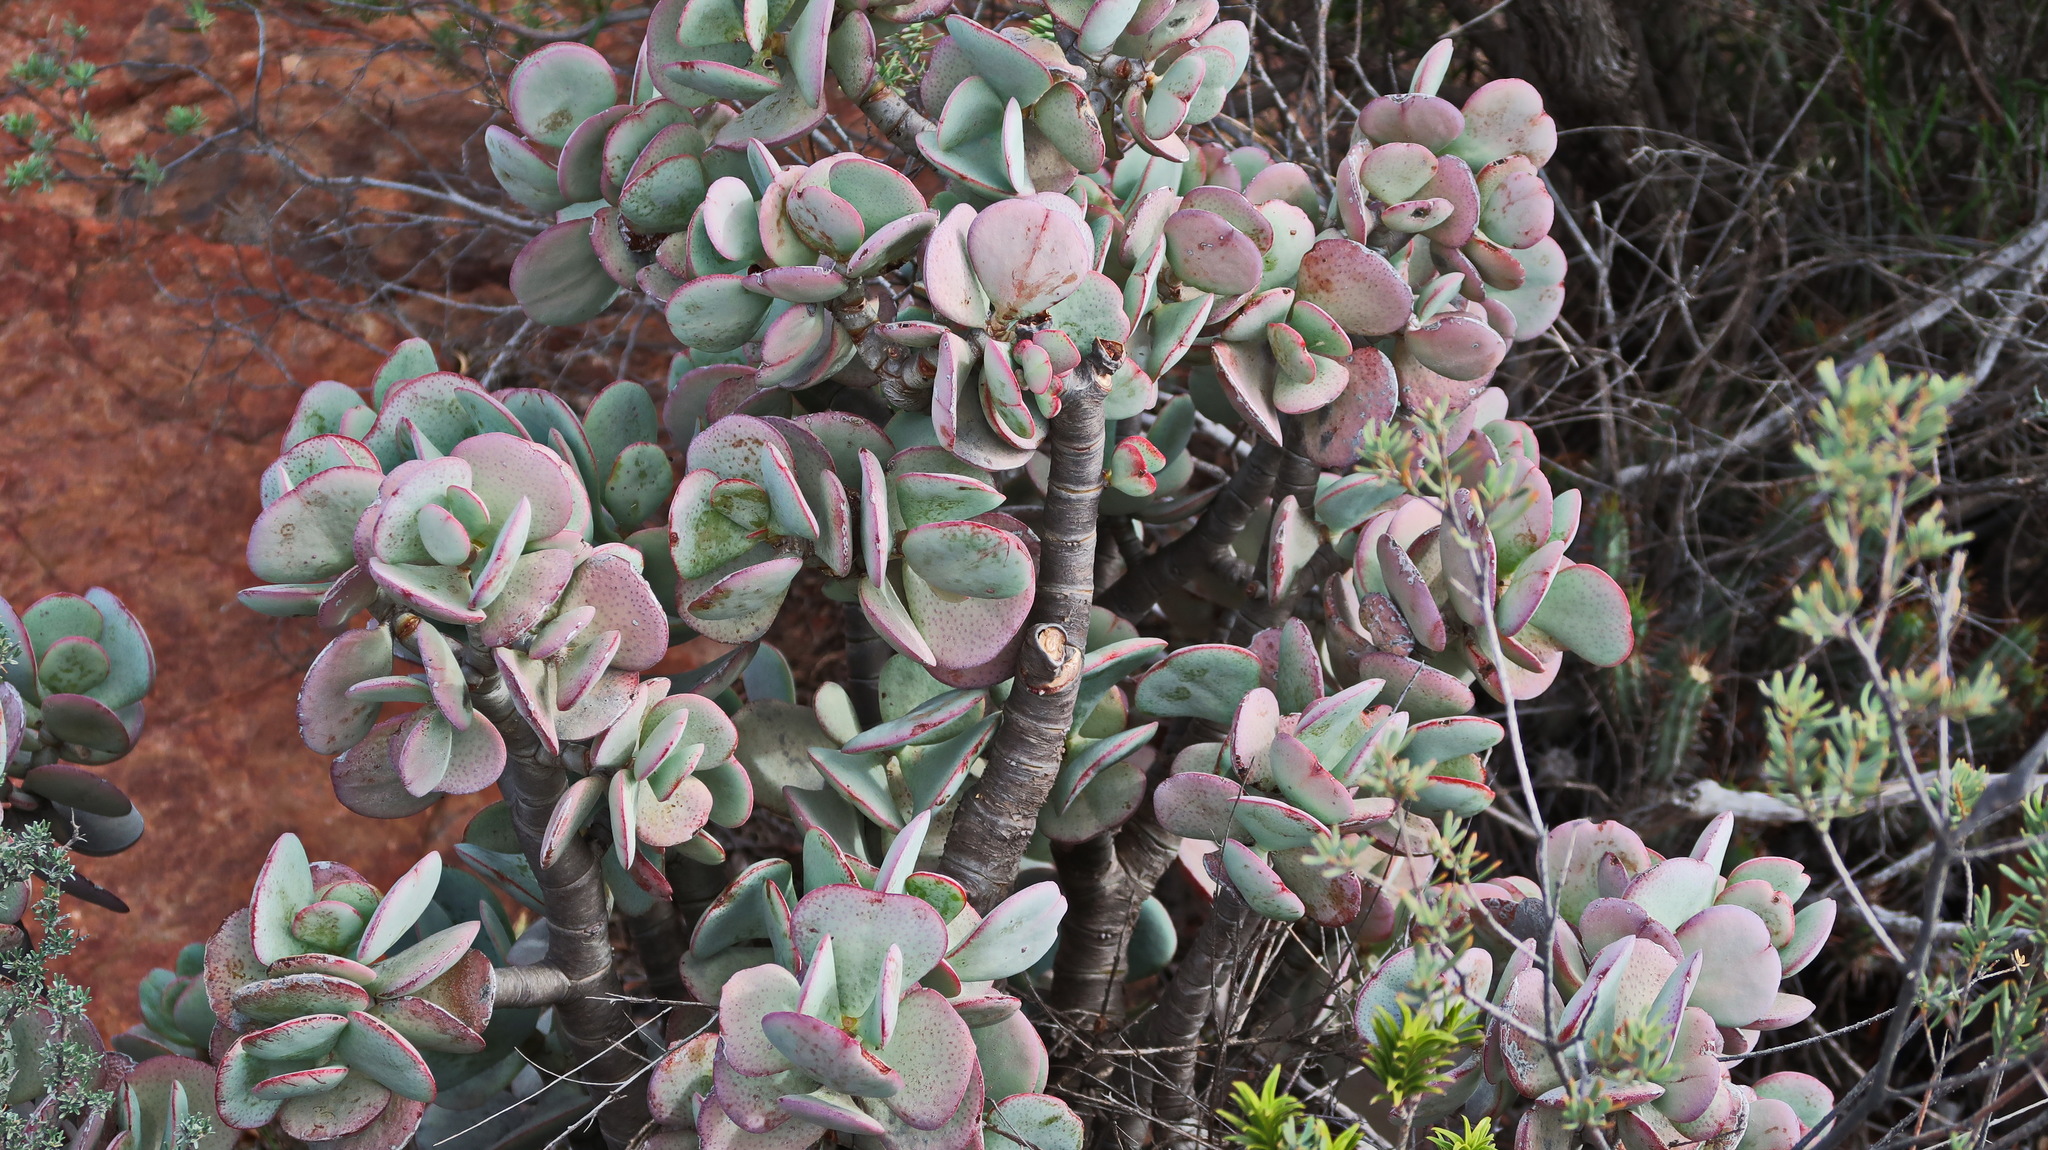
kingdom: Plantae
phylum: Tracheophyta
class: Magnoliopsida
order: Saxifragales
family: Crassulaceae
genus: Crassula
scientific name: Crassula arborescens
